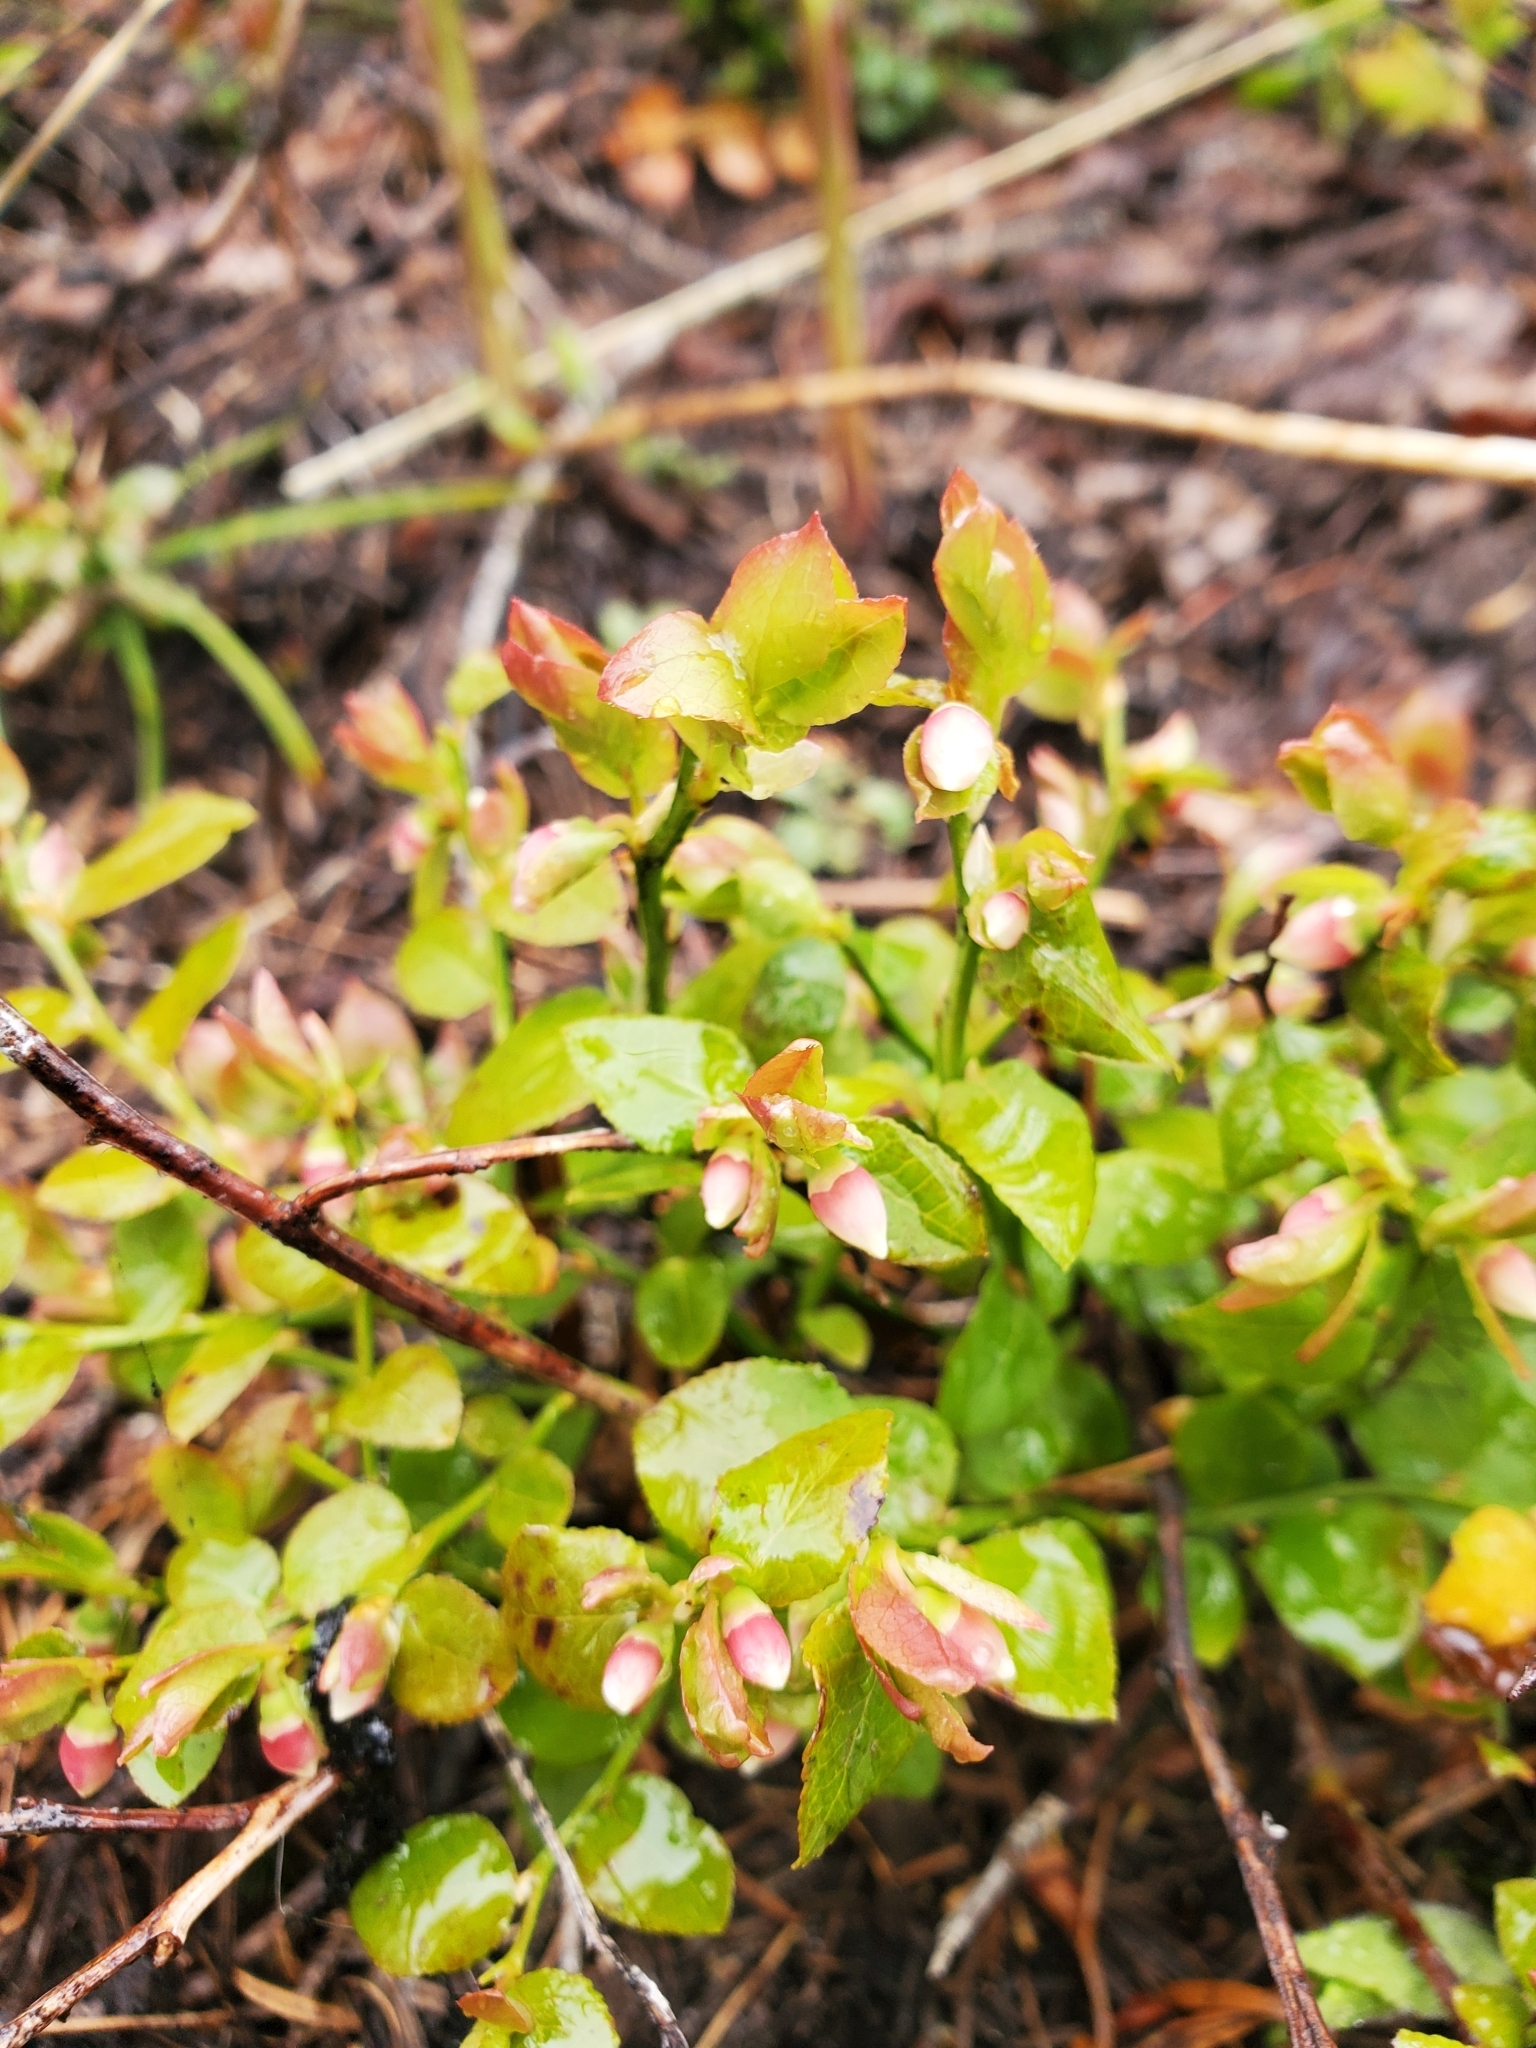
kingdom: Plantae
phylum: Tracheophyta
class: Magnoliopsida
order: Ericales
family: Ericaceae
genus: Vaccinium
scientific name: Vaccinium myrtillus
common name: Bilberry
